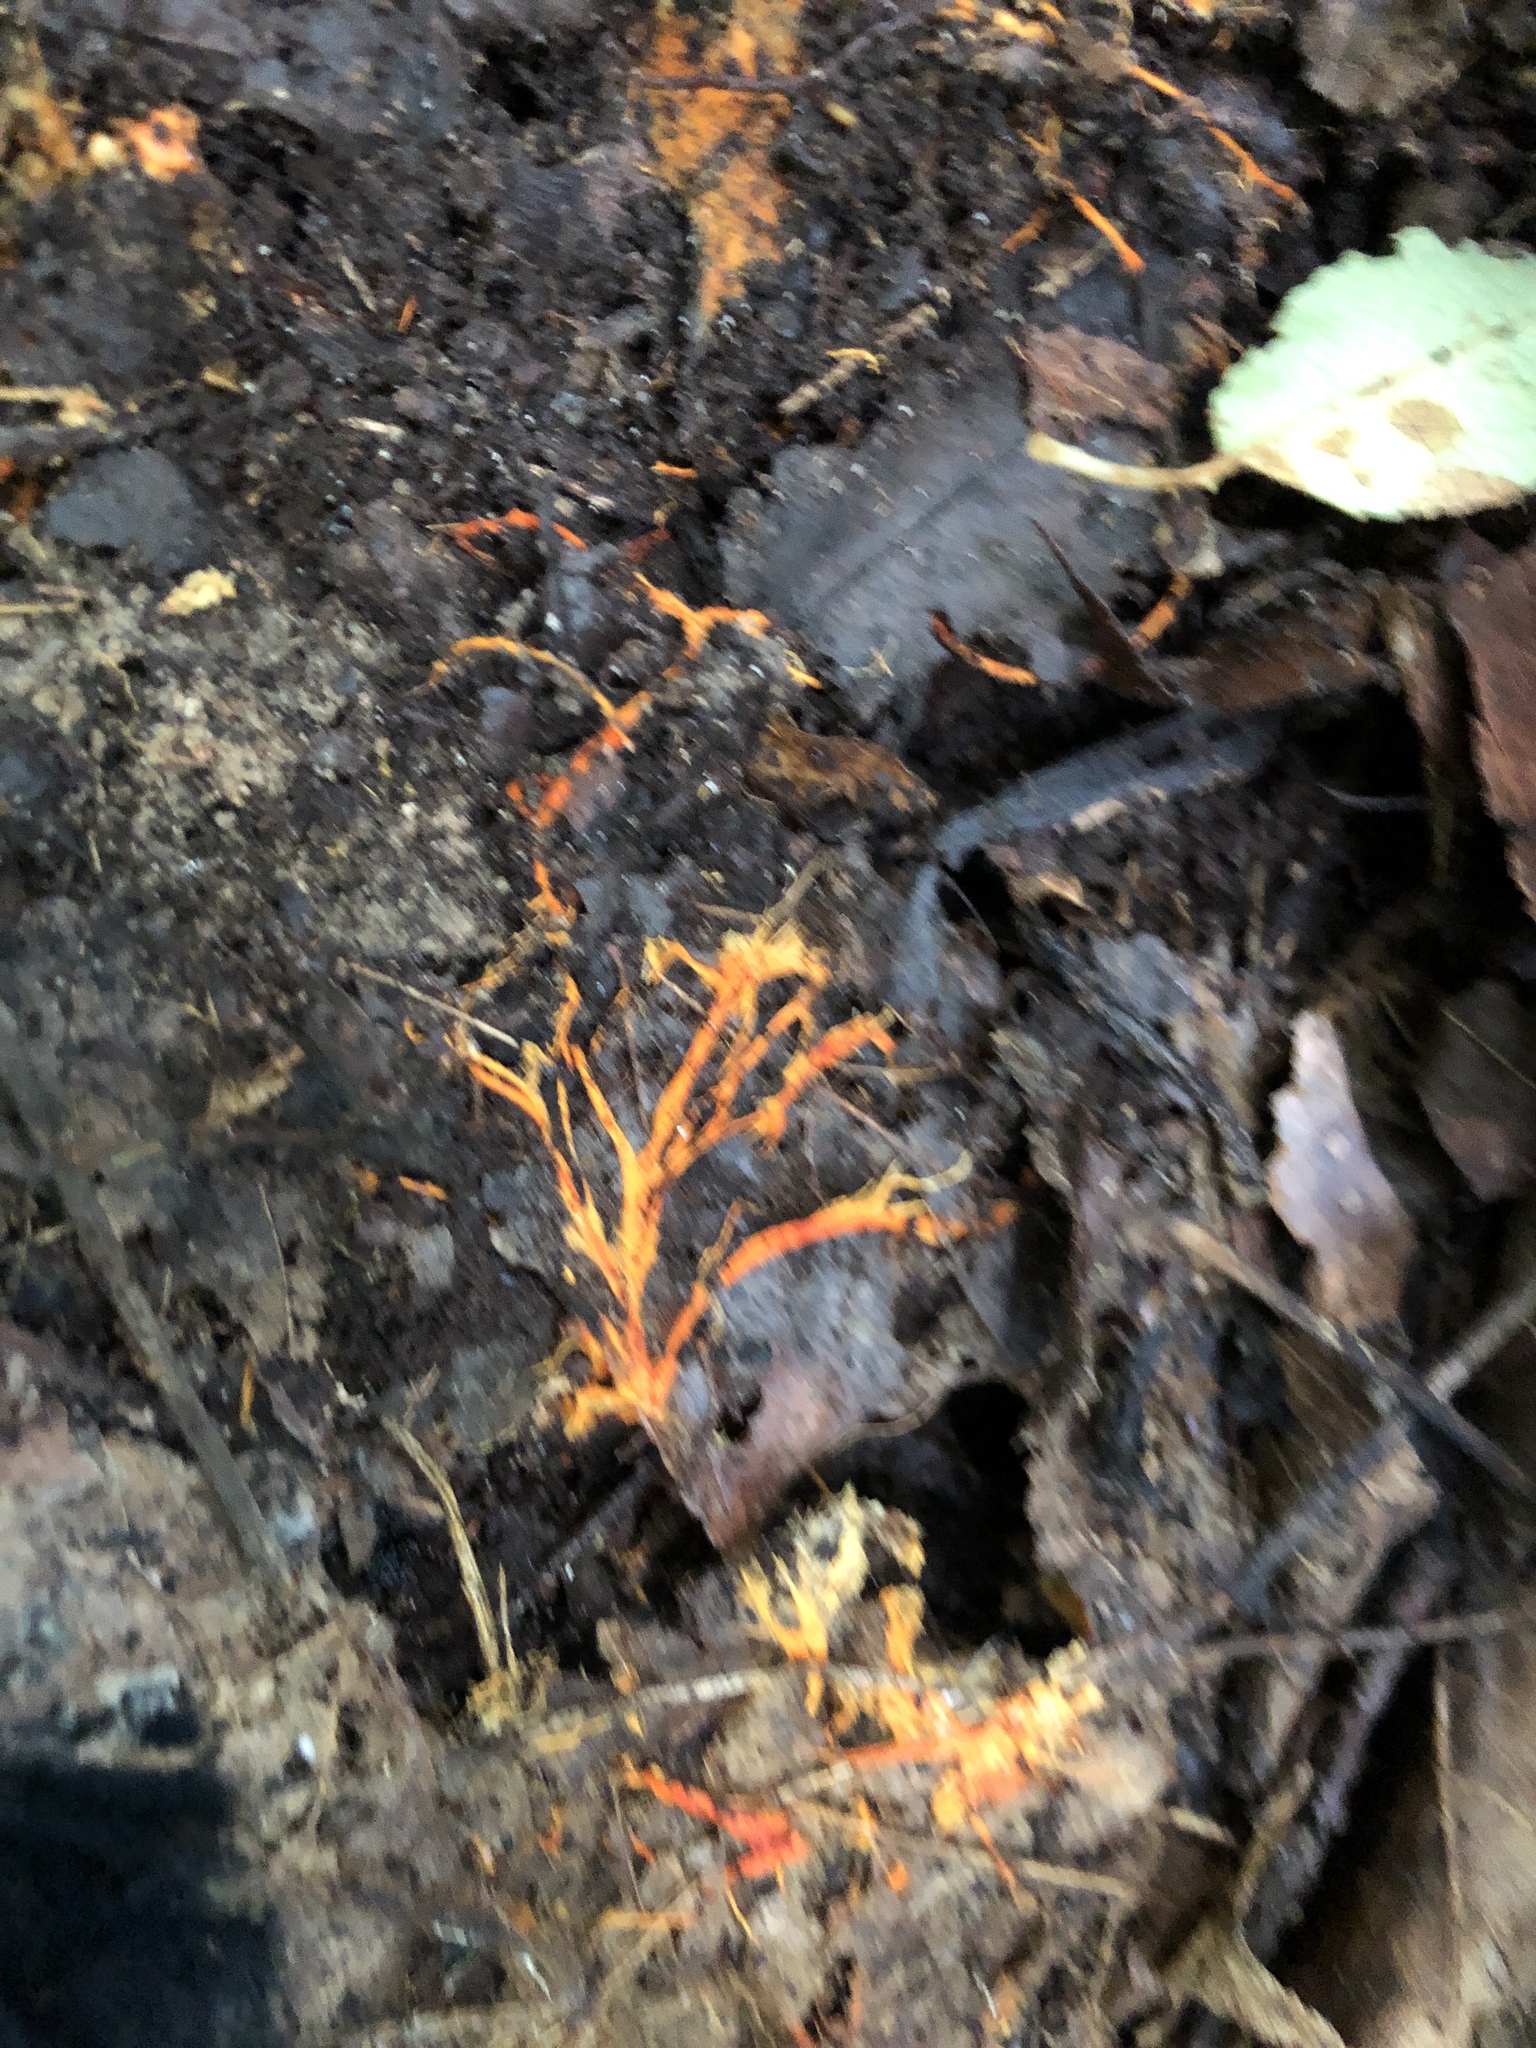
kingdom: Fungi
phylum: Basidiomycota
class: Agaricomycetes
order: Polyporales
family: Meruliaceae
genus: Hydnophlebia
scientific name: Hydnophlebia chrysorhiza
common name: Spreading yellow tooth
